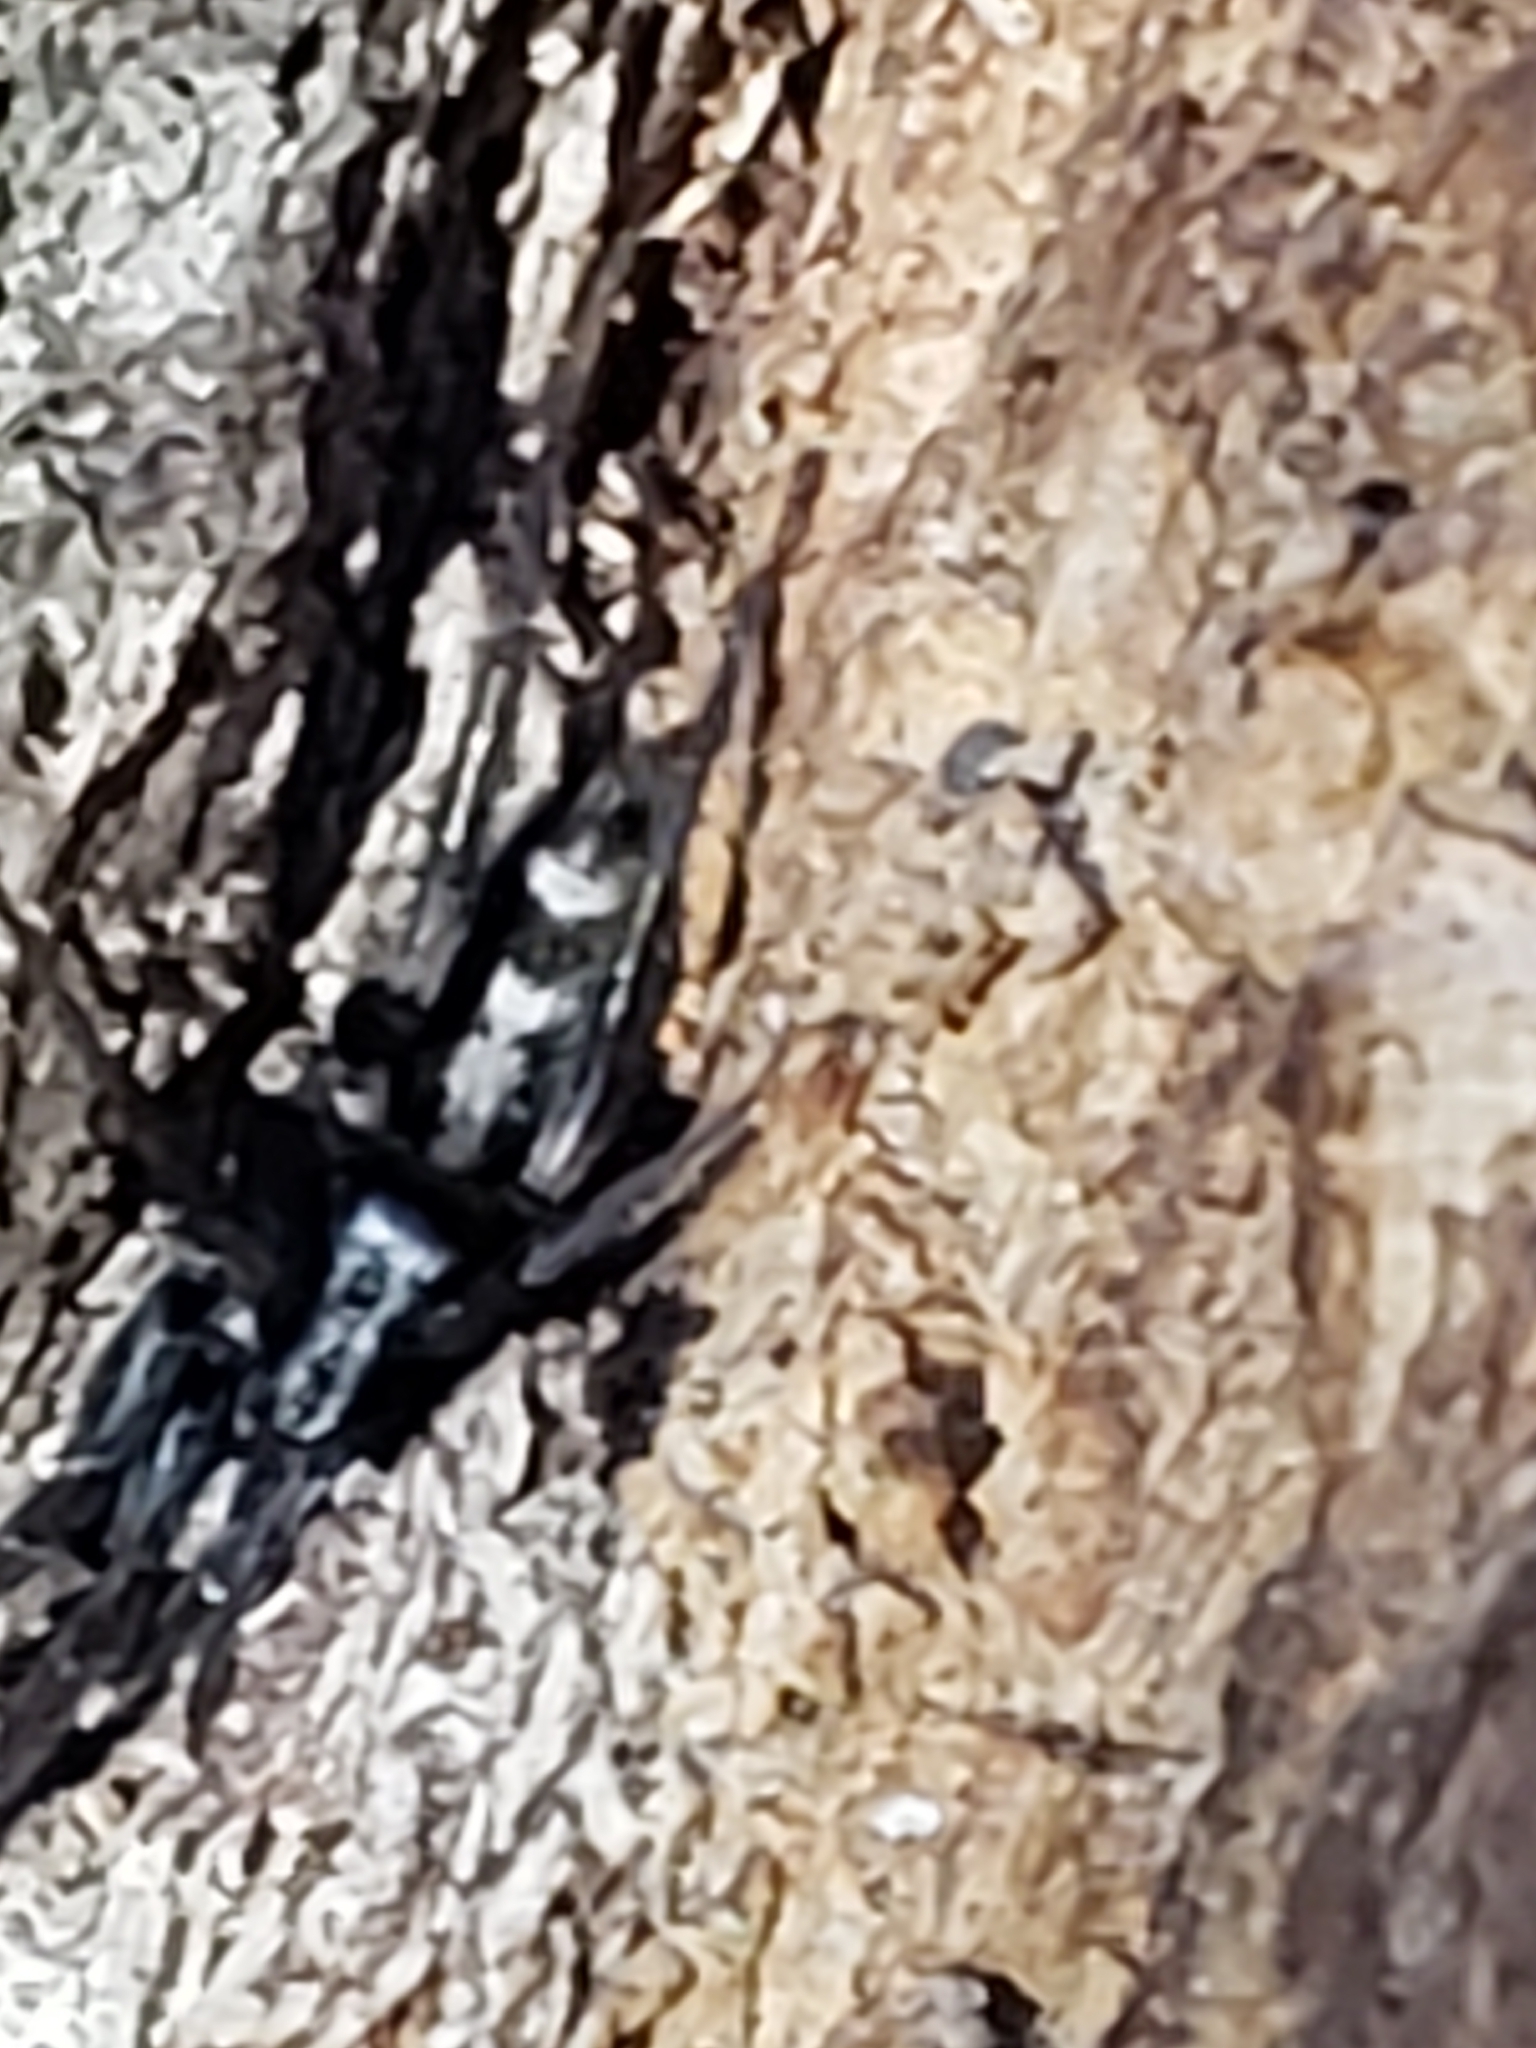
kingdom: Animalia
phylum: Arthropoda
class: Arachnida
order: Araneae
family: Gnaphosidae
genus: Herpyllus
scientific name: Herpyllus ecclesiasticus
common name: Eastern parson spider
